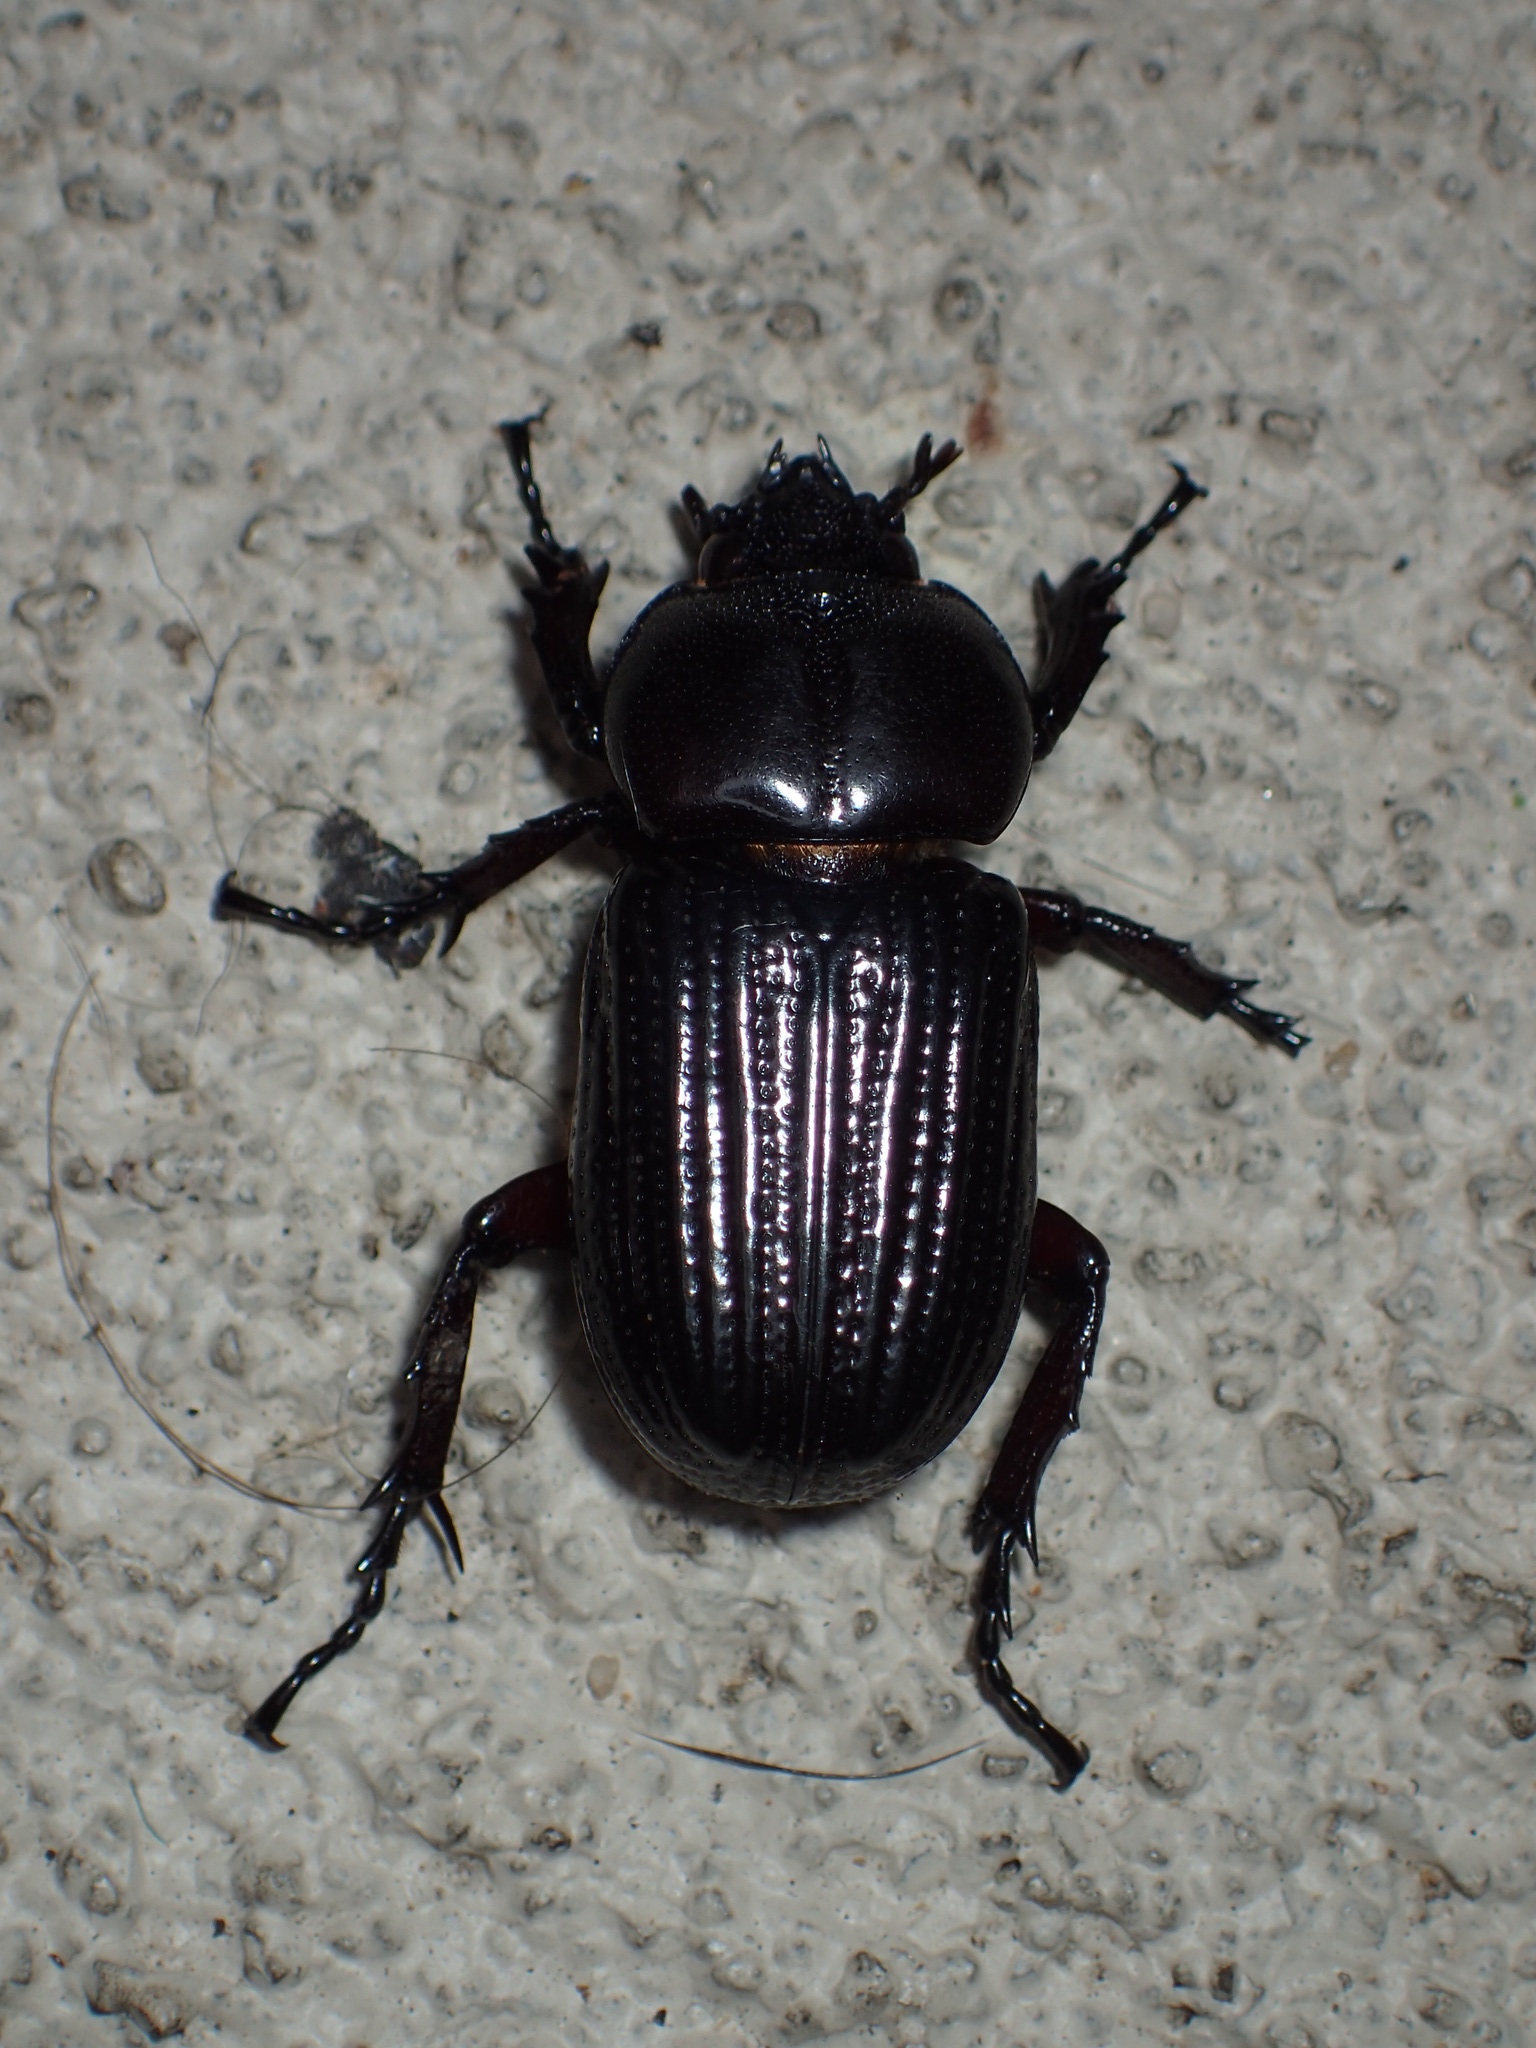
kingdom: Animalia
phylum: Arthropoda
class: Insecta
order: Coleoptera
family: Scarabaeidae
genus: Phileurus
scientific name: Phileurus valgus
